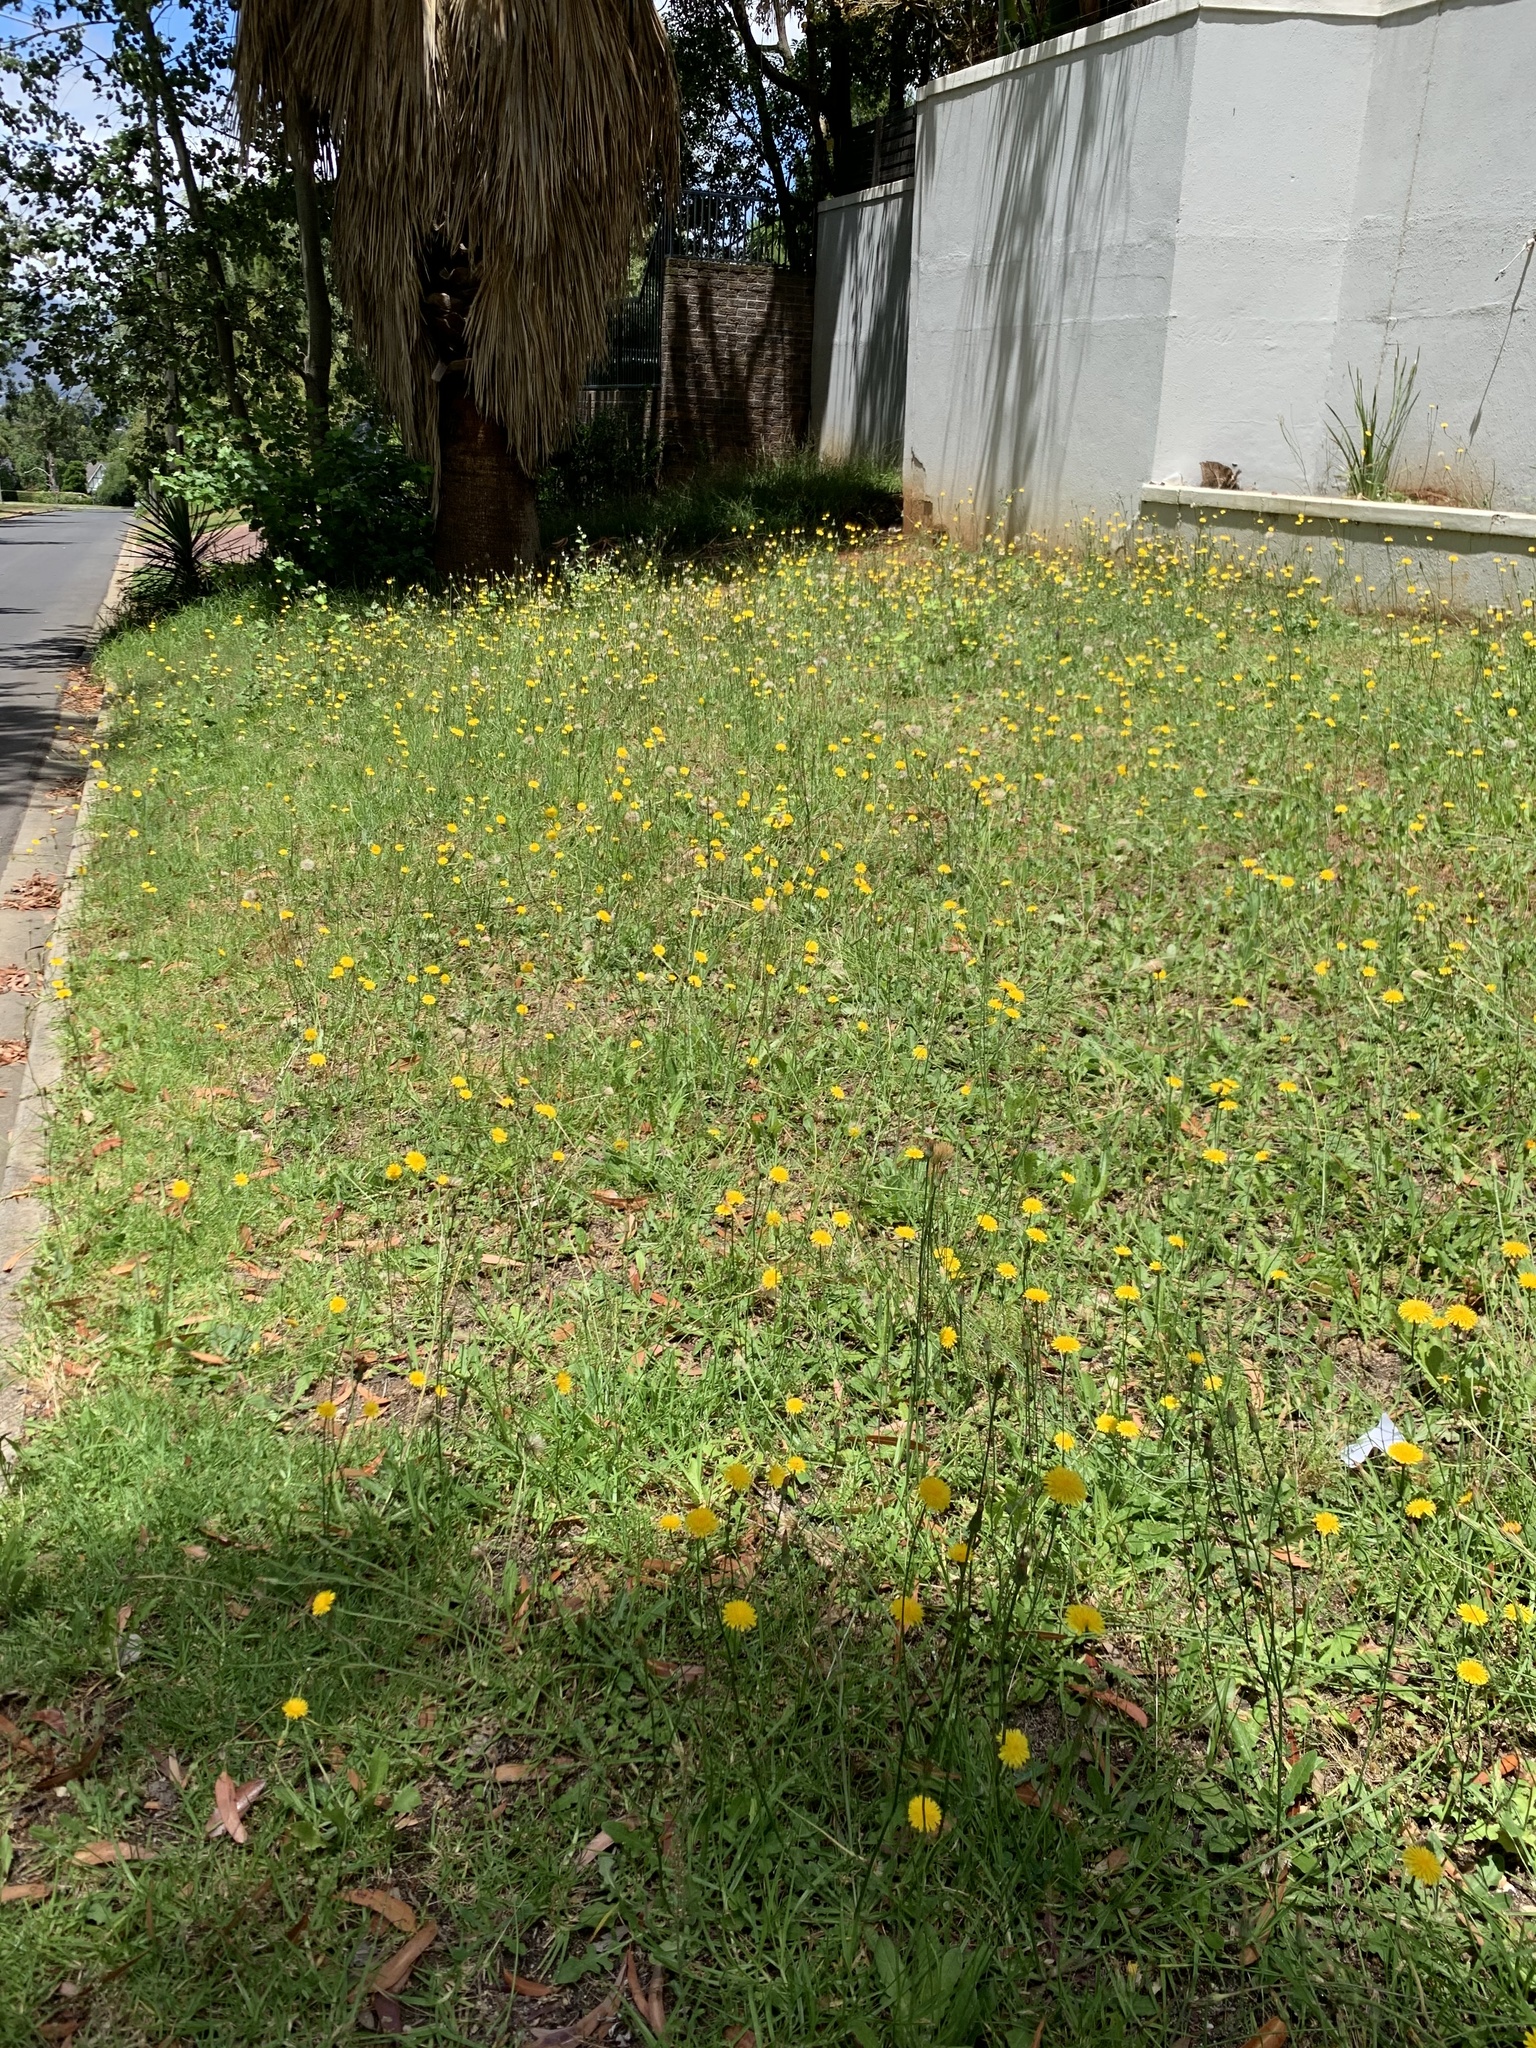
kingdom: Plantae
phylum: Tracheophyta
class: Magnoliopsida
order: Asterales
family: Asteraceae
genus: Hypochaeris
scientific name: Hypochaeris radicata
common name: Flatweed
